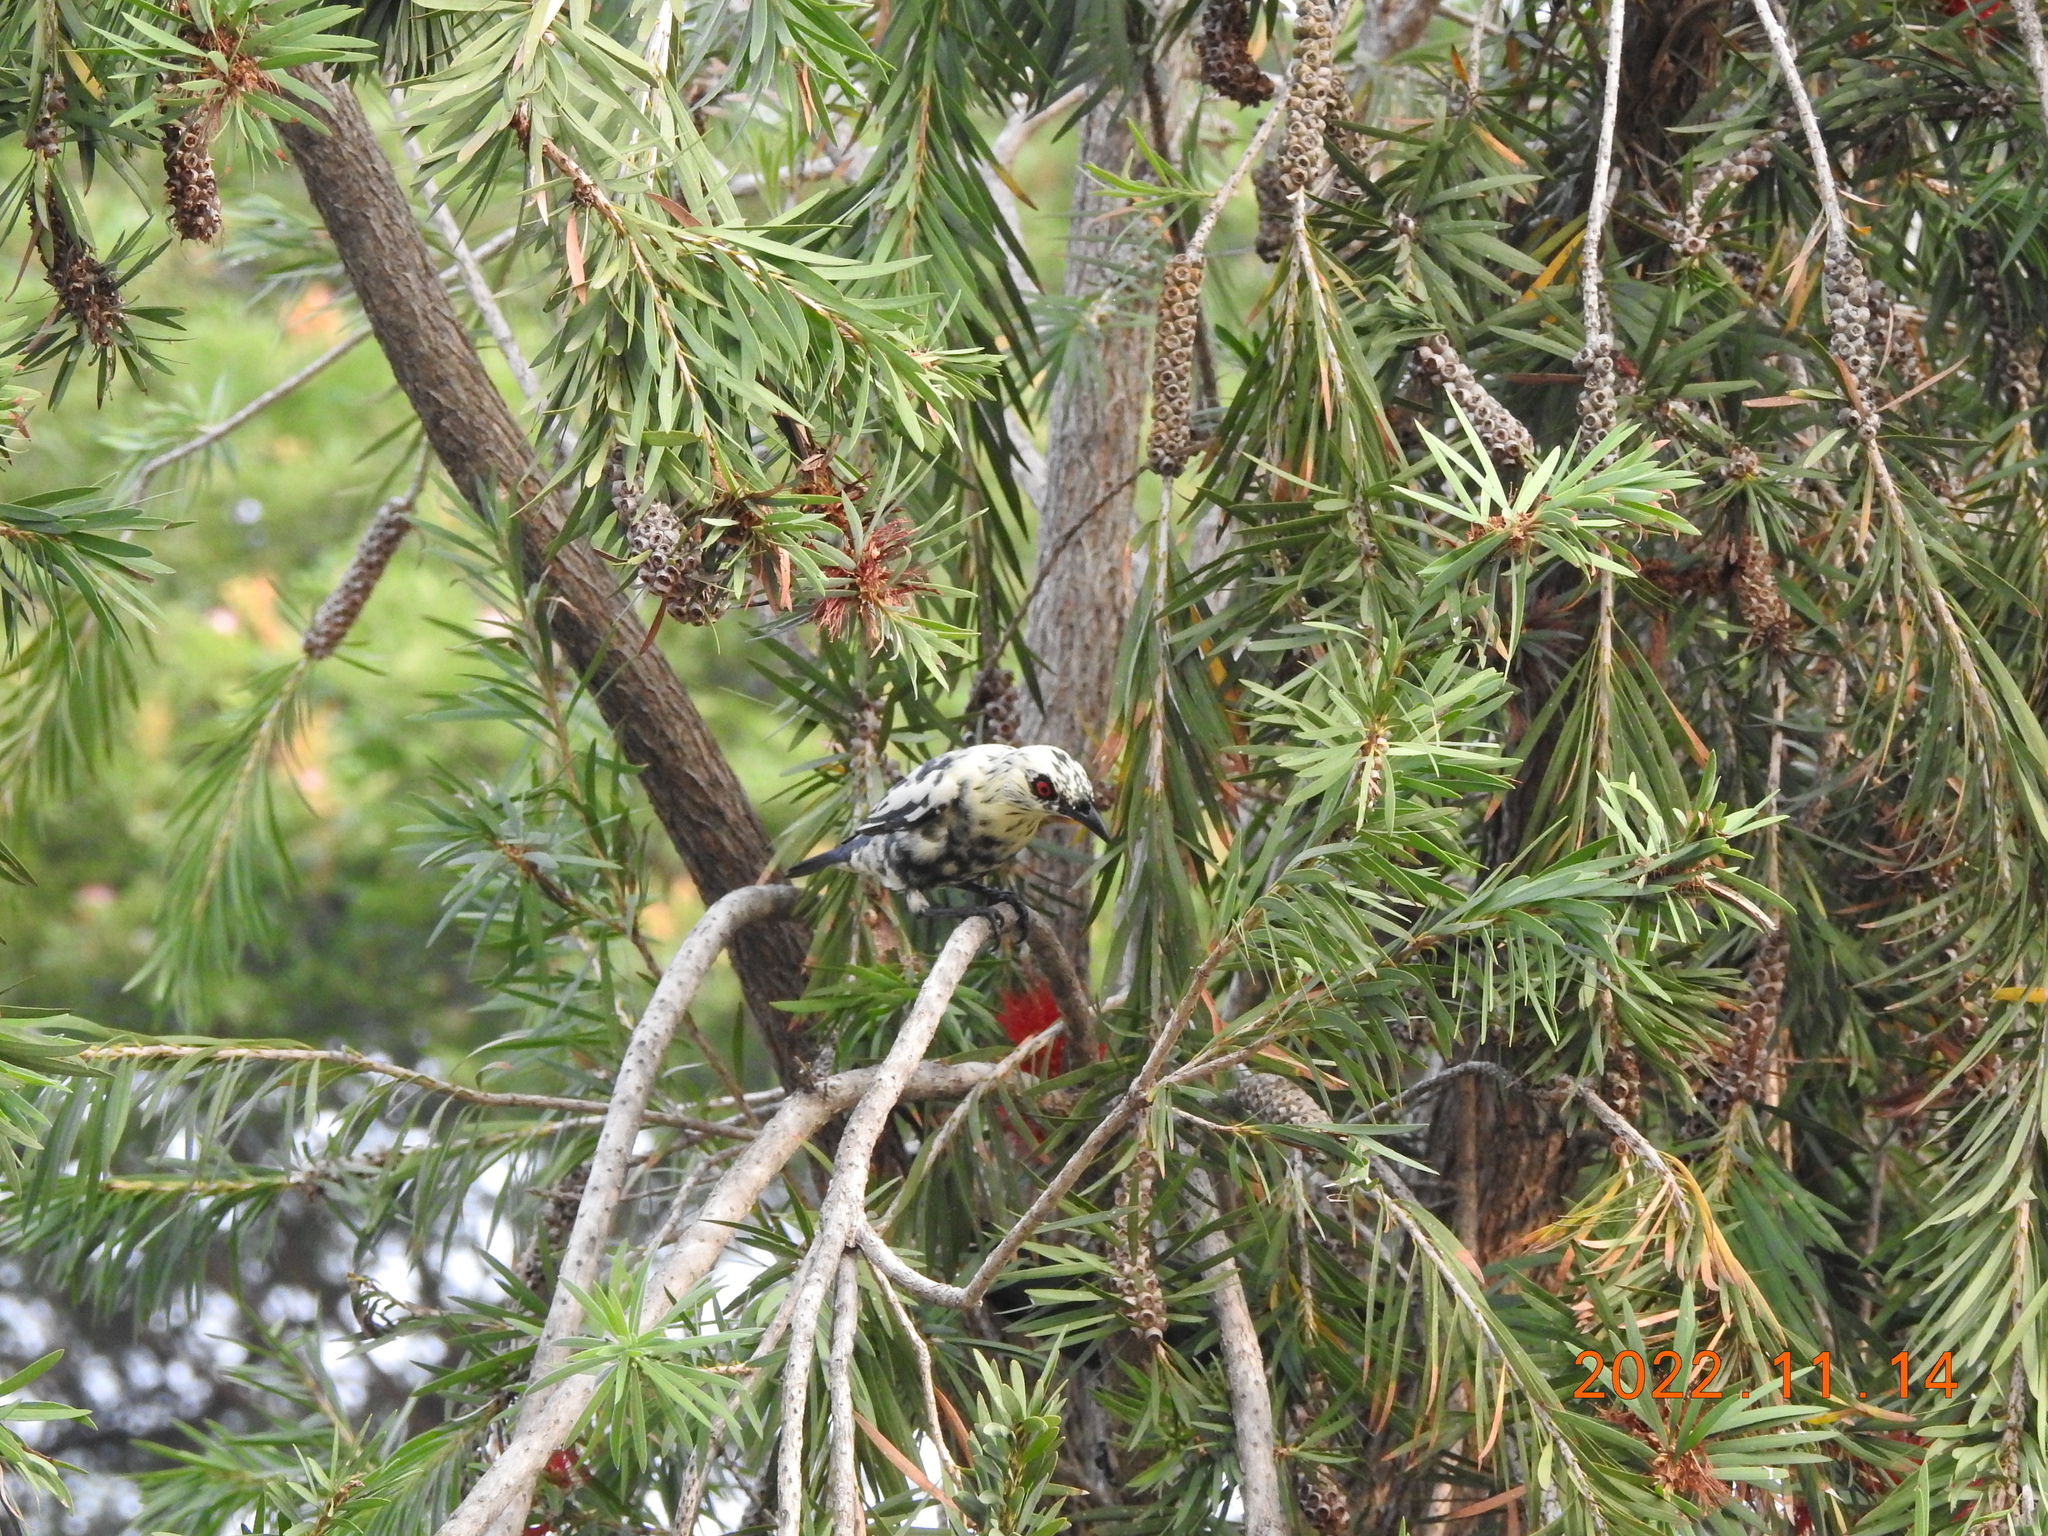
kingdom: Animalia
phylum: Chordata
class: Aves
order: Passeriformes
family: Sturnidae
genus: Aplonis
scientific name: Aplonis panayensis
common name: Asian glossy starling
